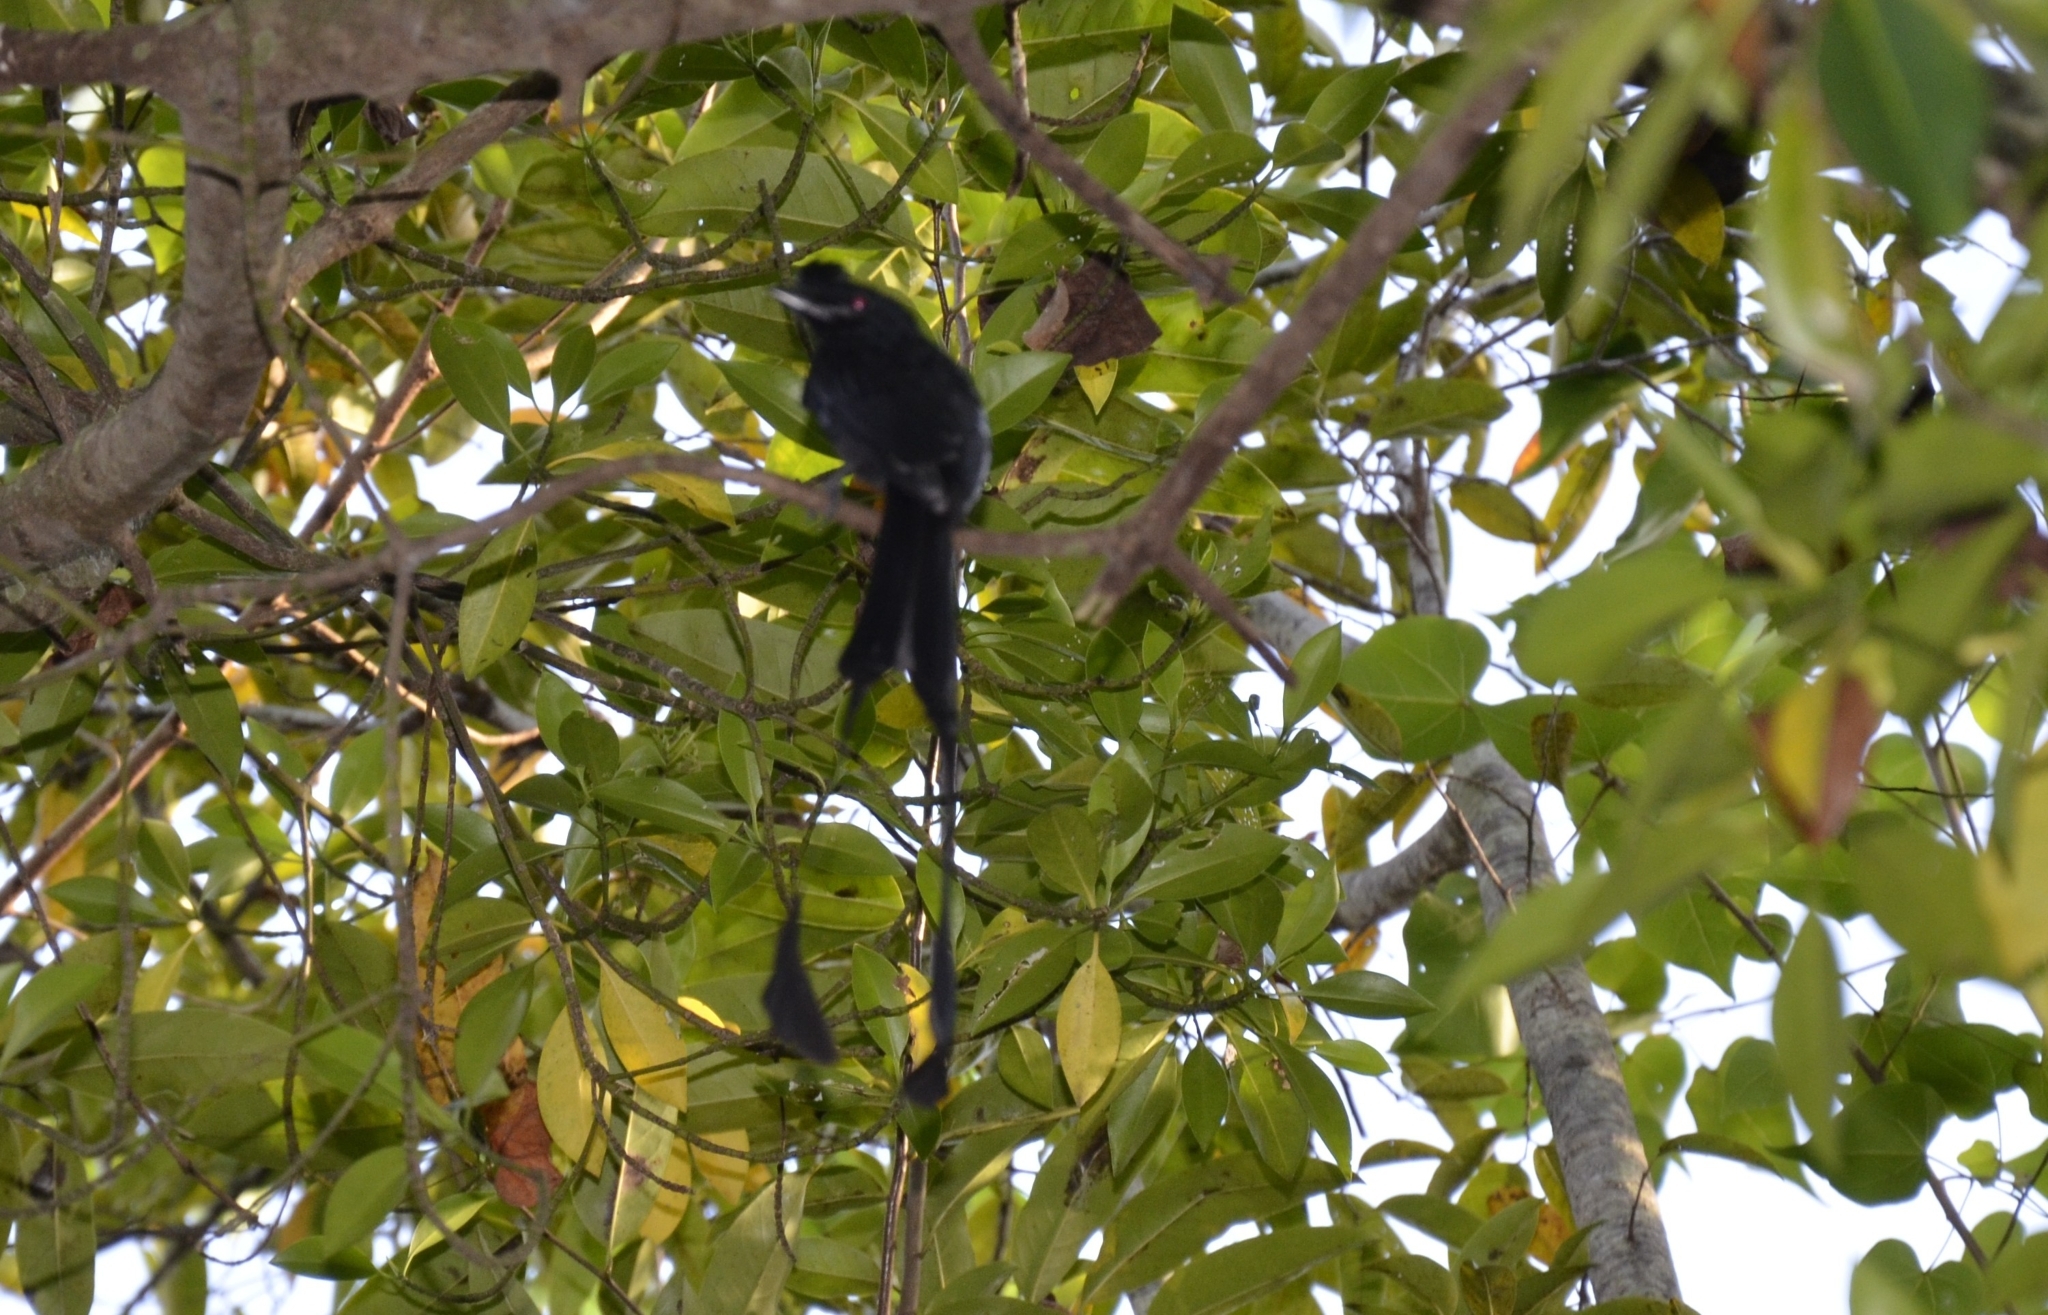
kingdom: Animalia
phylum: Chordata
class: Aves
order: Passeriformes
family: Dicruridae
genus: Dicrurus
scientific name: Dicrurus paradiseus
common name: Greater racket-tailed drongo
